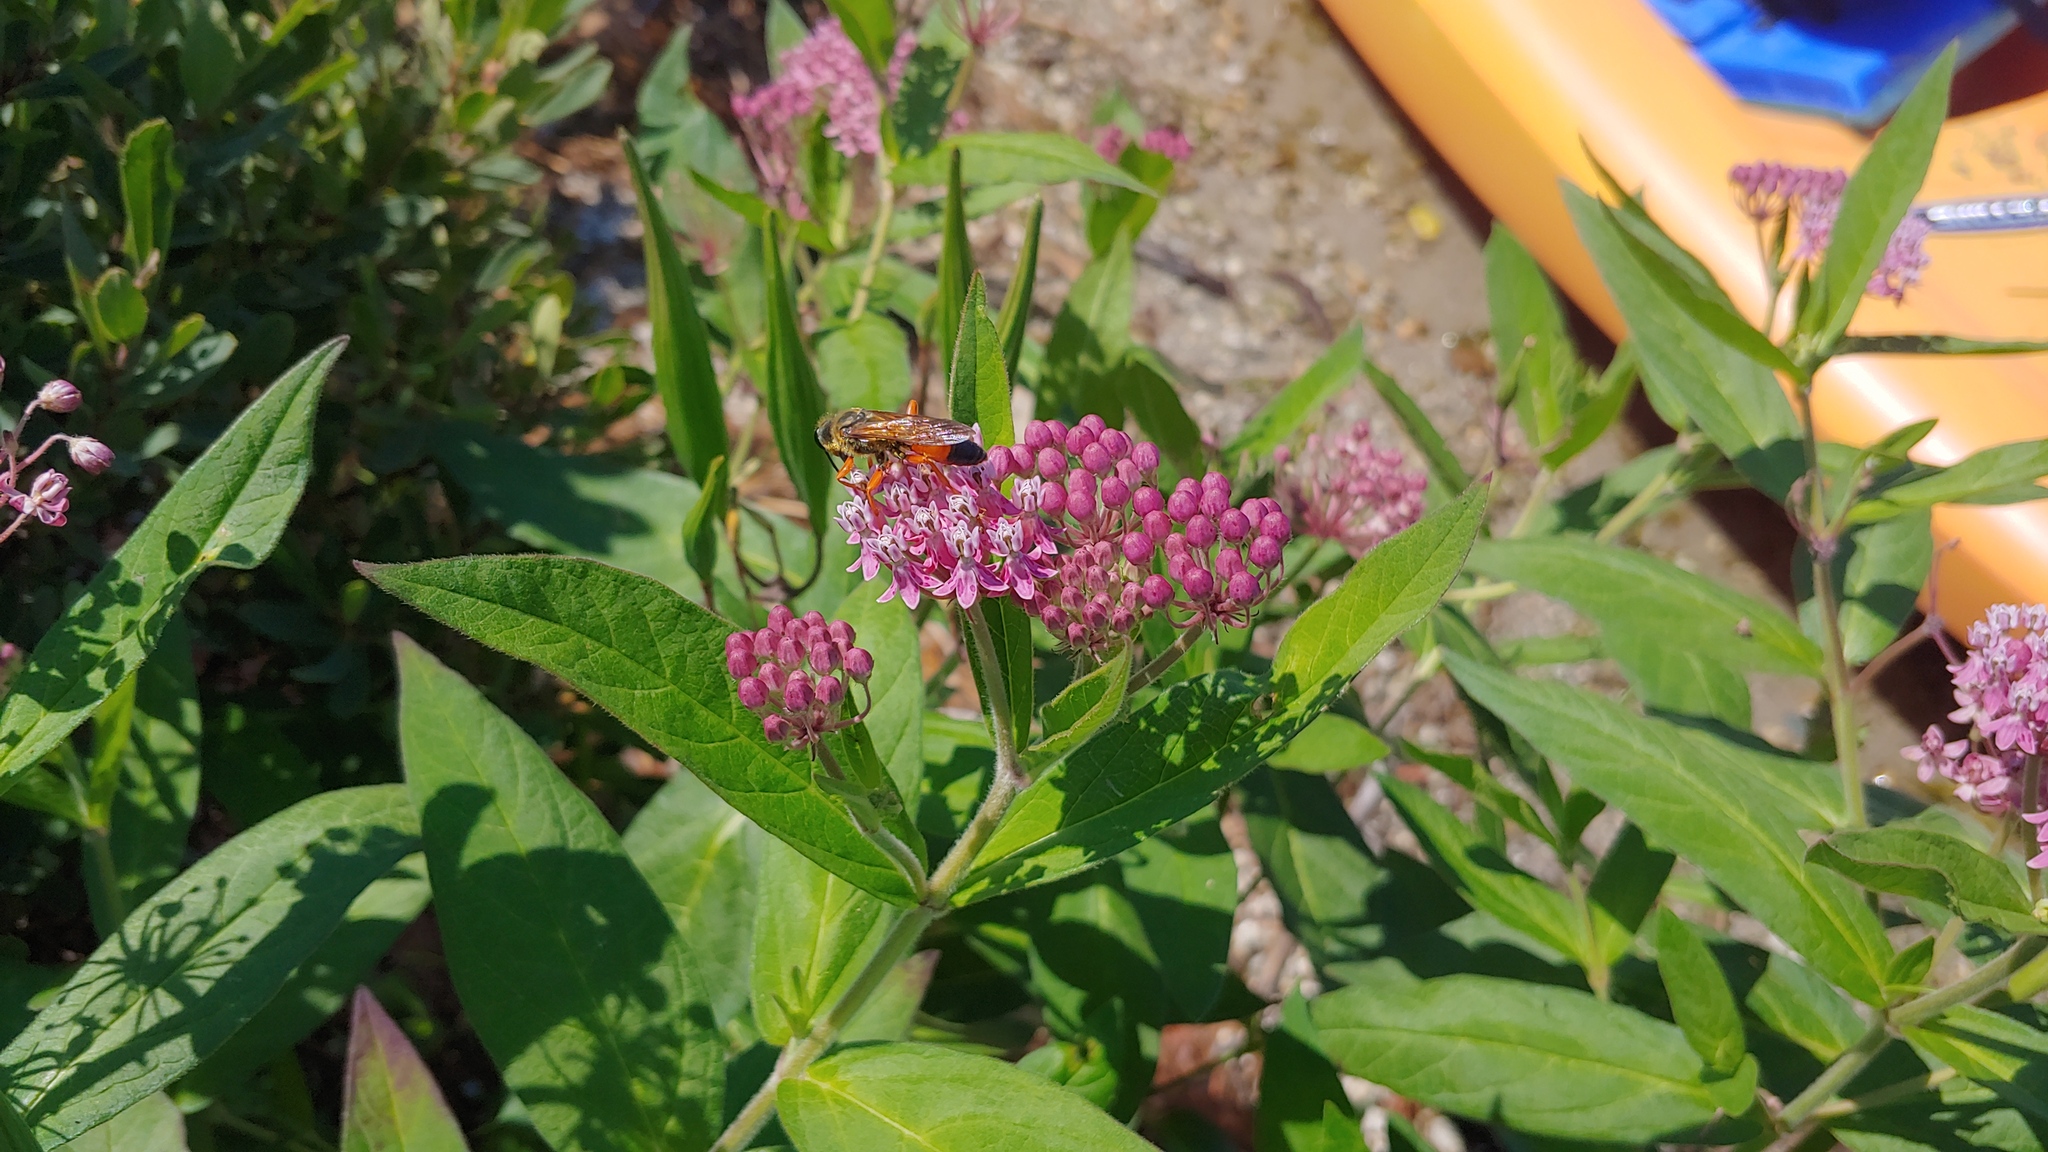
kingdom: Plantae
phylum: Tracheophyta
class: Magnoliopsida
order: Gentianales
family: Apocynaceae
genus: Asclepias
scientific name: Asclepias incarnata
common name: Swamp milkweed
